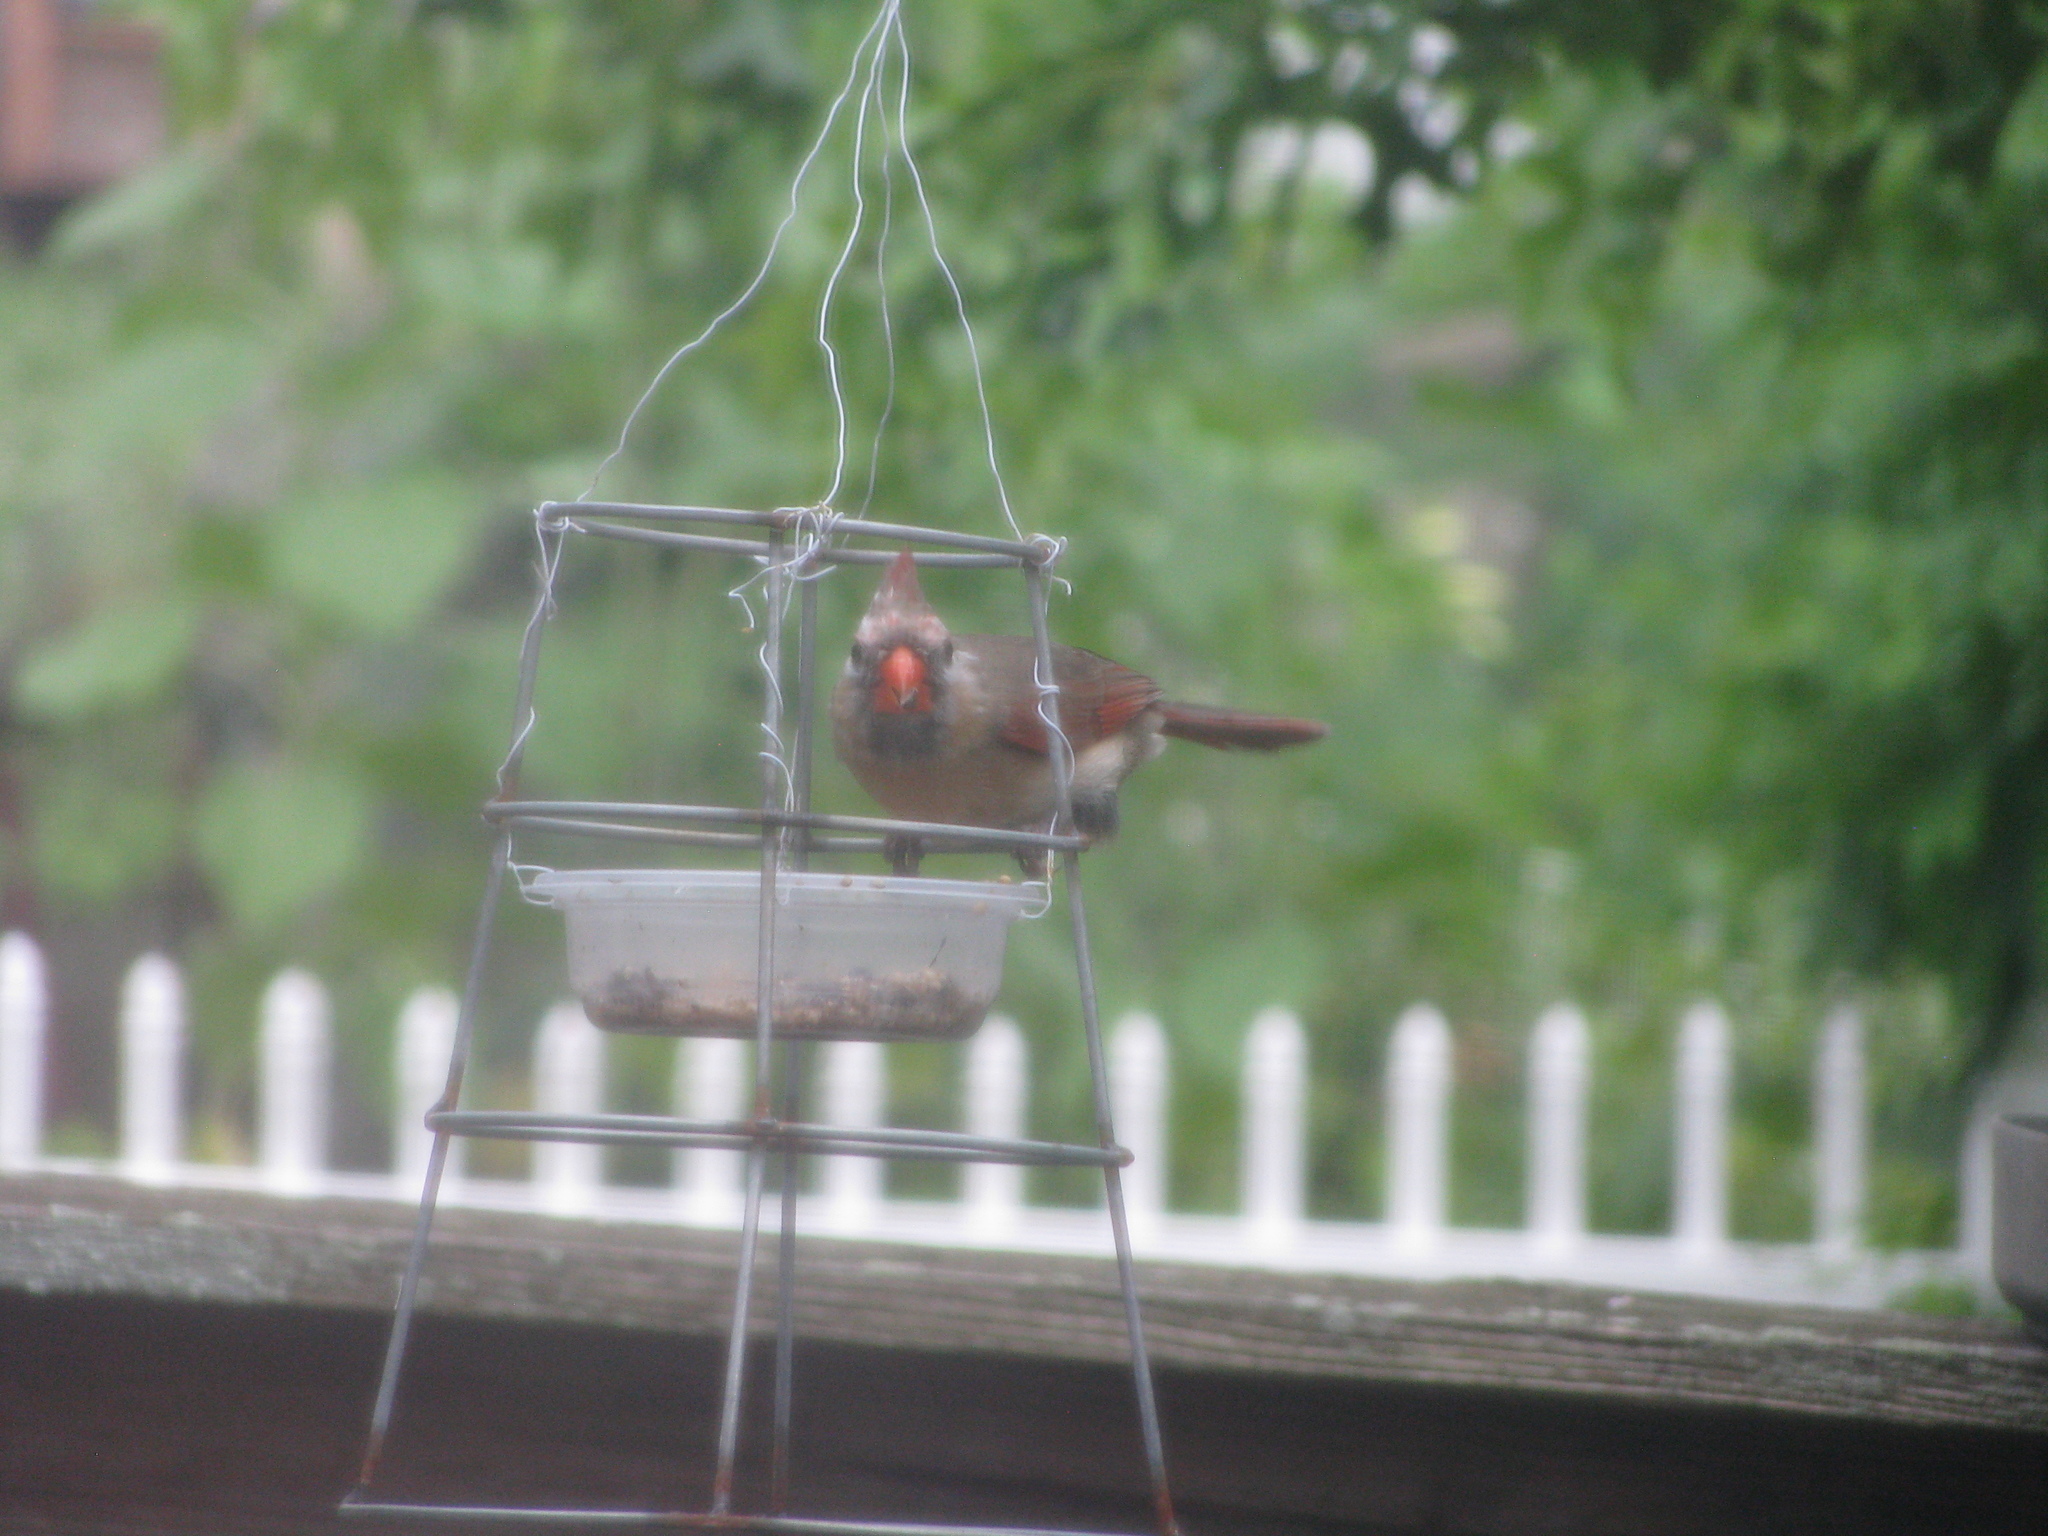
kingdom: Animalia
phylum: Chordata
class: Aves
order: Passeriformes
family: Cardinalidae
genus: Cardinalis
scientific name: Cardinalis cardinalis
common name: Northern cardinal
